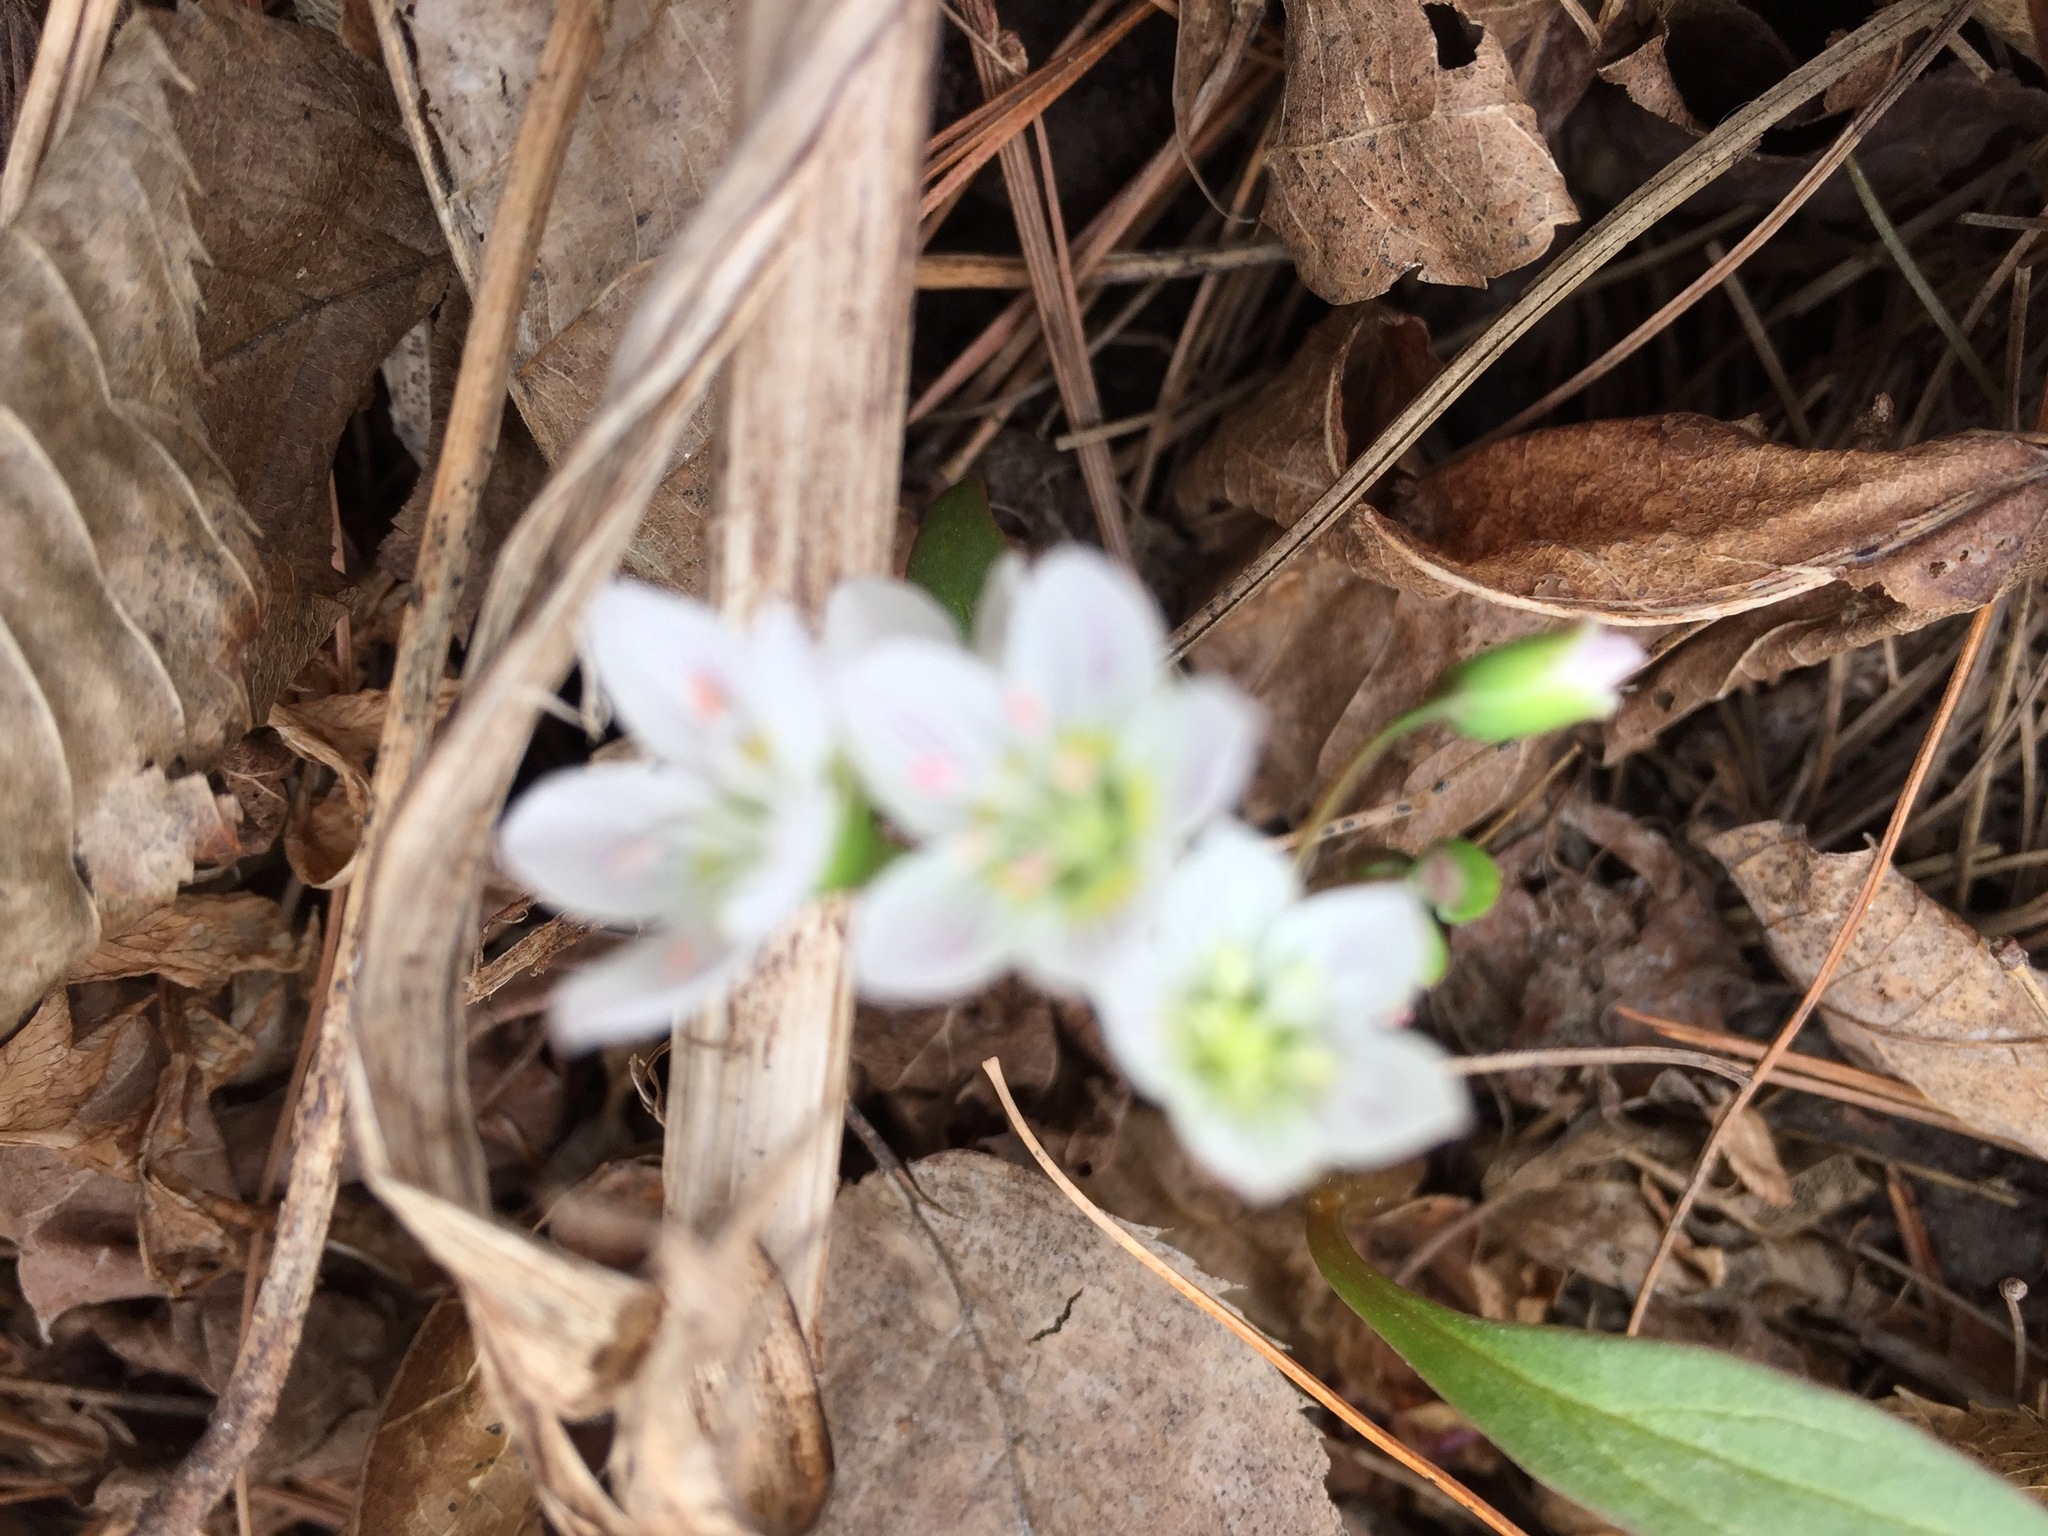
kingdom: Plantae
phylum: Tracheophyta
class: Magnoliopsida
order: Caryophyllales
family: Montiaceae
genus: Claytonia
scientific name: Claytonia caroliniana
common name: Carolina spring beauty
